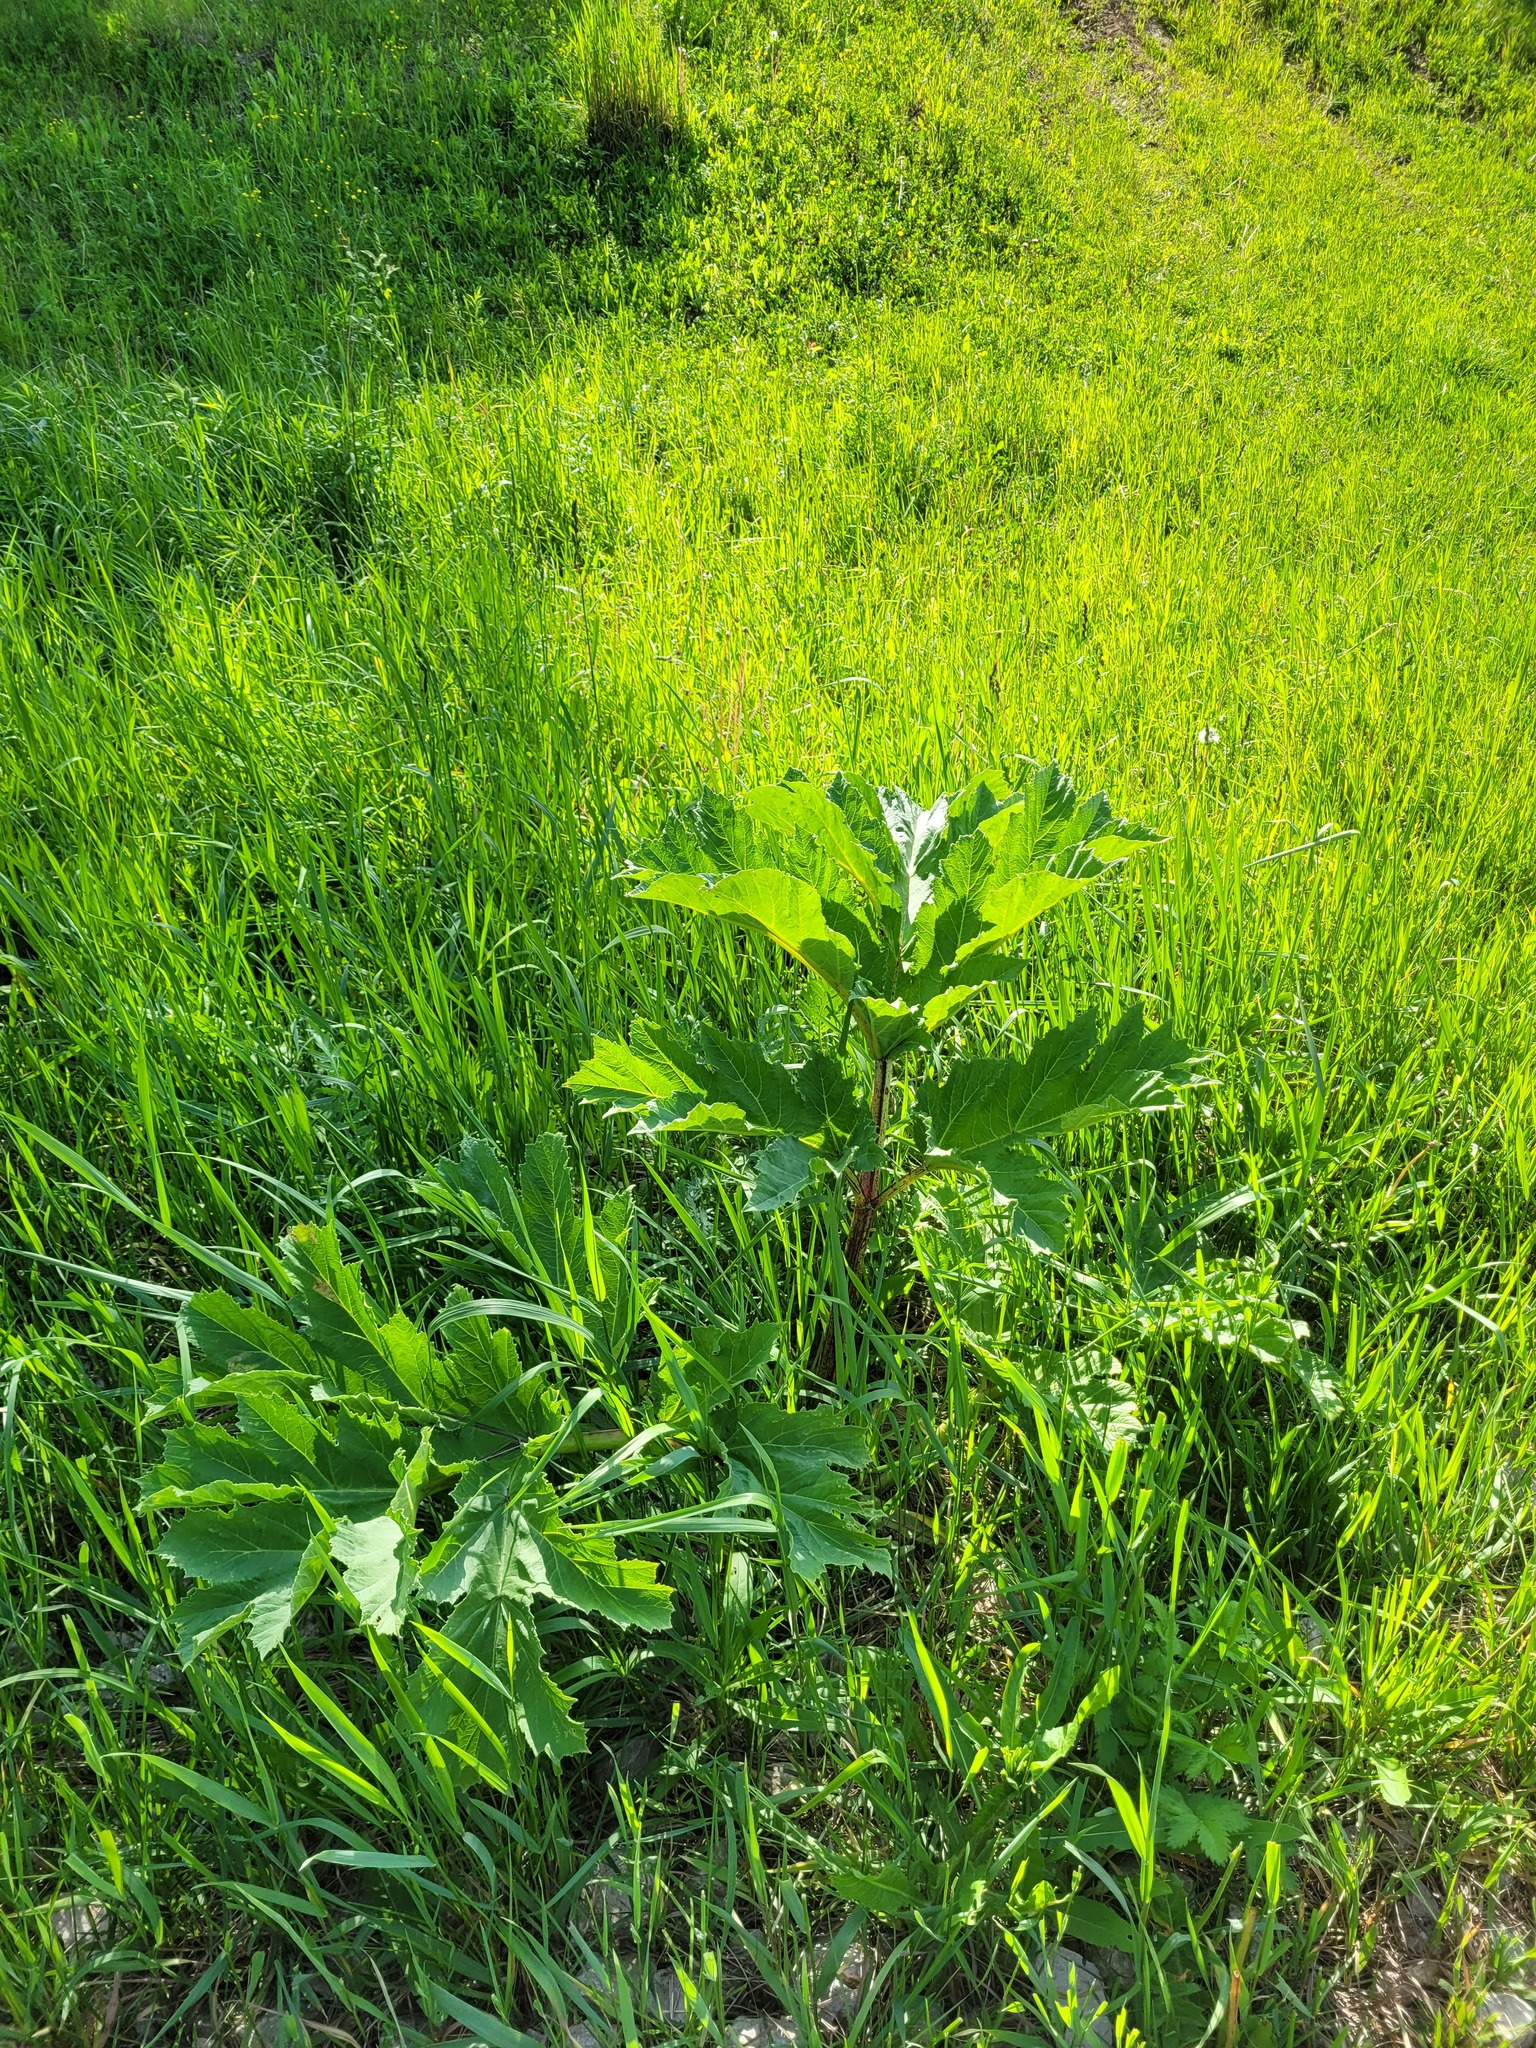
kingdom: Plantae
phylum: Tracheophyta
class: Magnoliopsida
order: Apiales
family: Apiaceae
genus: Heracleum
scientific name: Heracleum sosnowskyi
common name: Sosnowsky's hogweed
